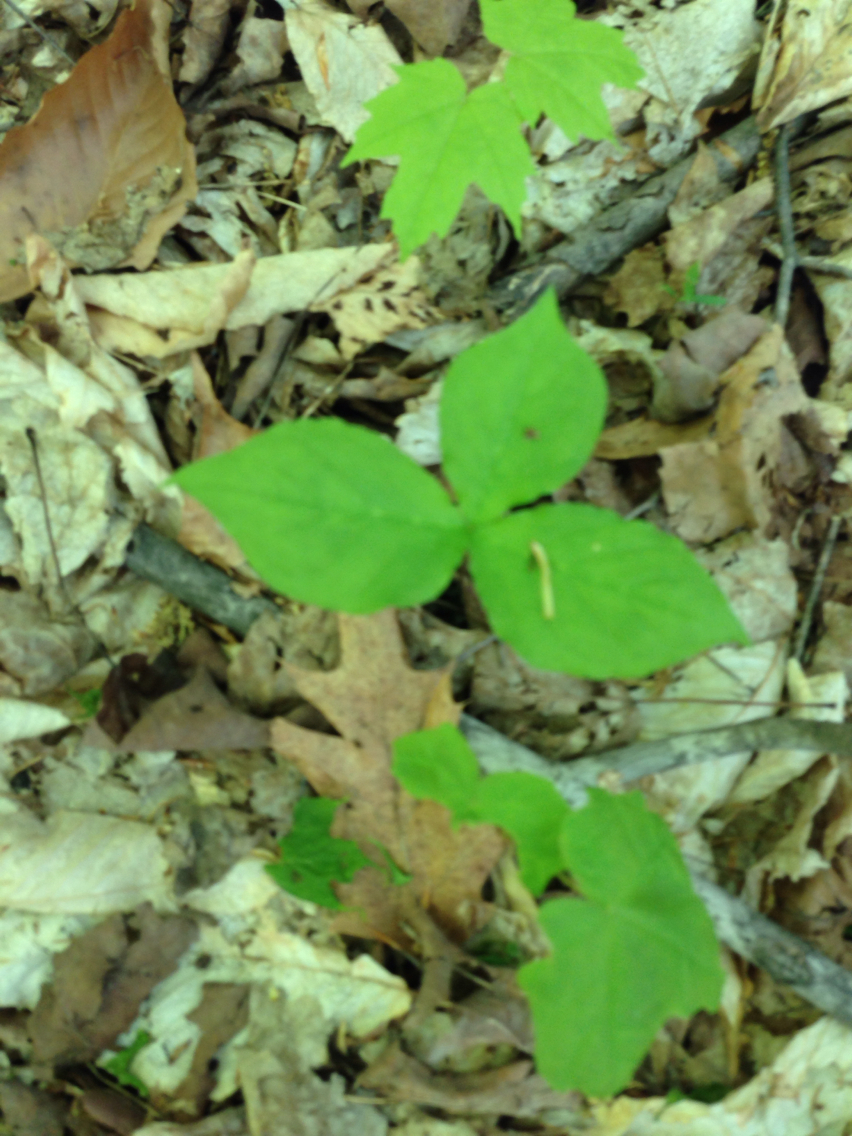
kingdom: Plantae
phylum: Tracheophyta
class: Liliopsida
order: Alismatales
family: Araceae
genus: Arisaema
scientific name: Arisaema triphyllum
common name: Jack-in-the-pulpit
